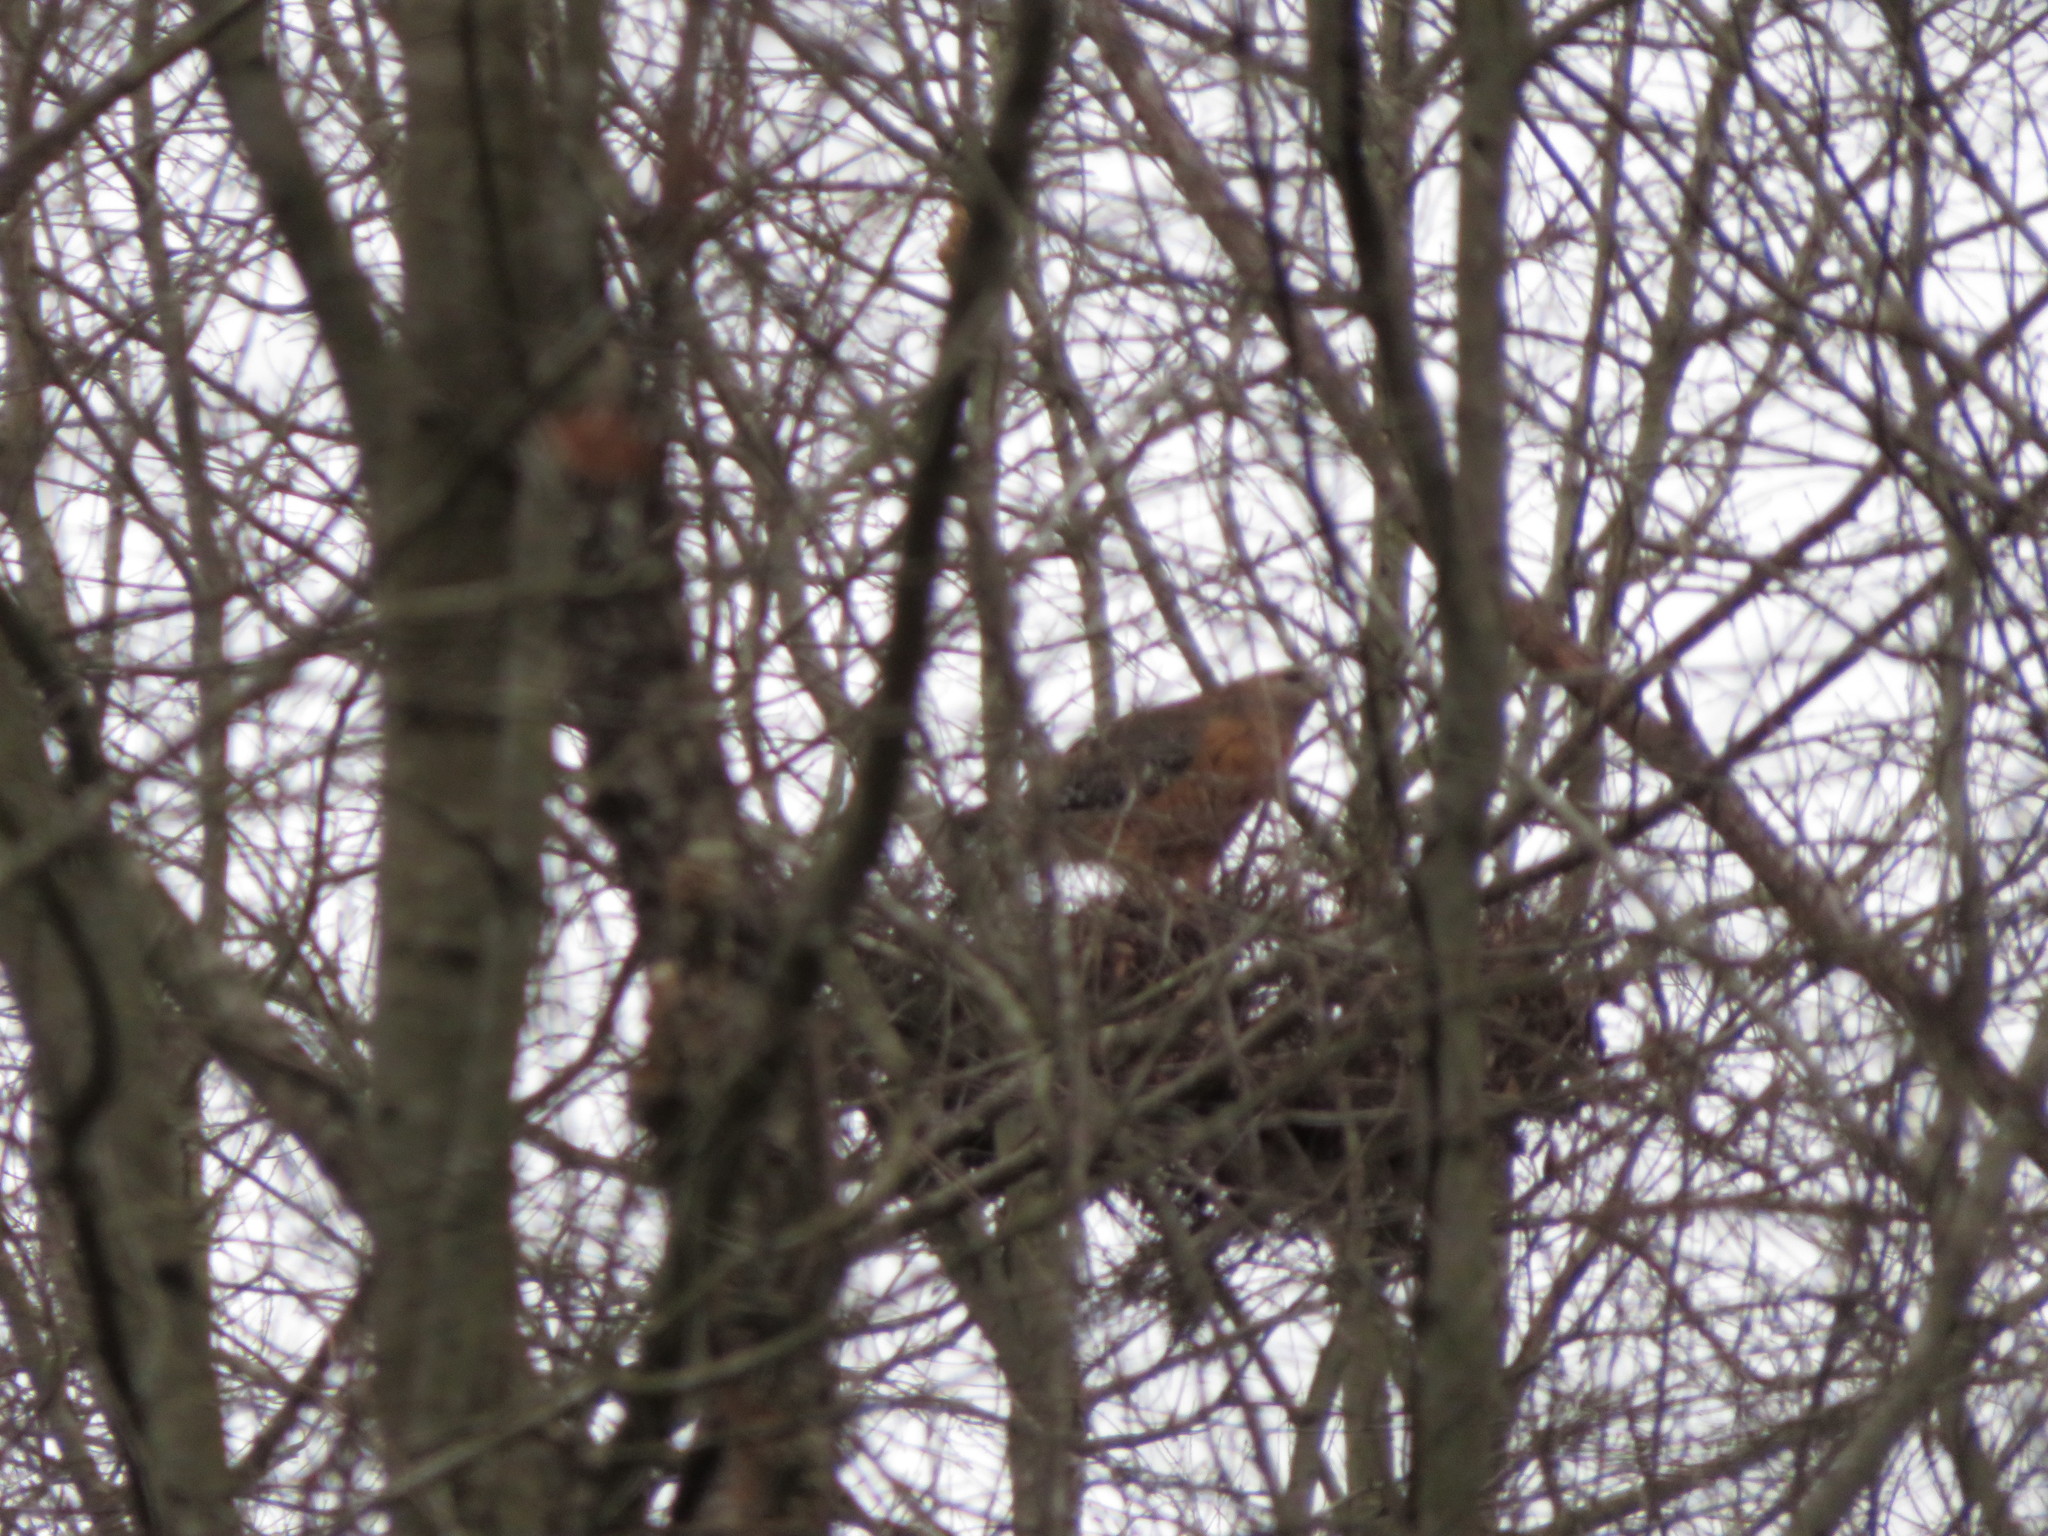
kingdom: Animalia
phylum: Chordata
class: Aves
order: Accipitriformes
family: Accipitridae
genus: Buteo
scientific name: Buteo lineatus
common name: Red-shouldered hawk
